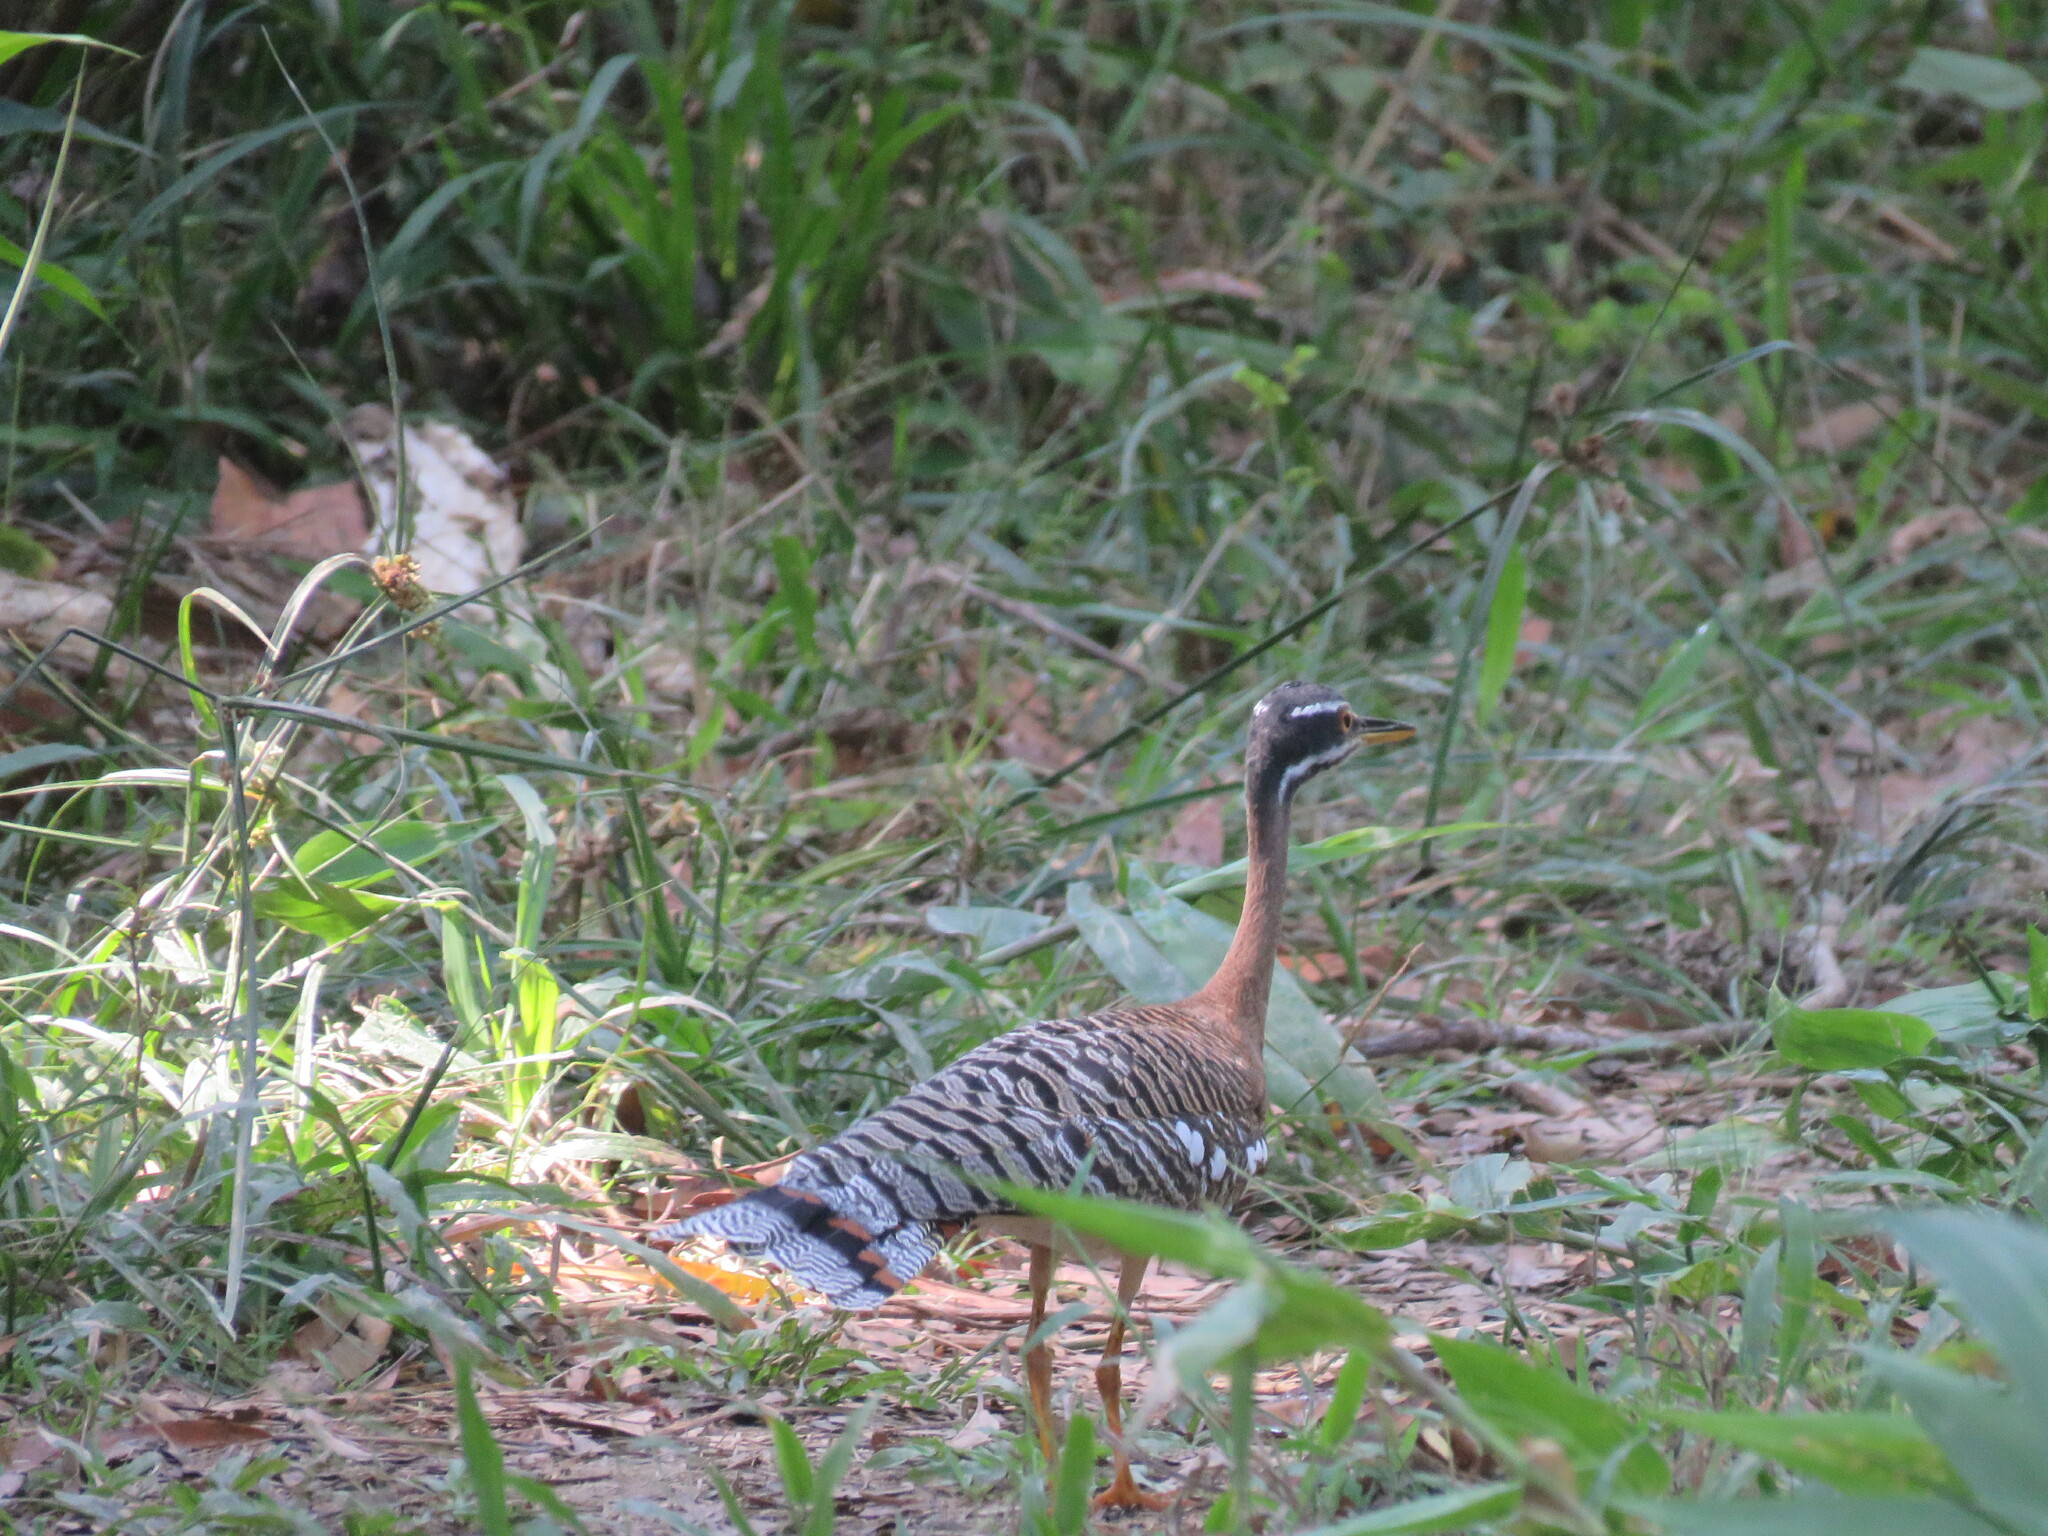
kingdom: Animalia
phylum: Chordata
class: Aves
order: Eurypygiformes
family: Eurypygidae
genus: Eurypyga
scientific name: Eurypyga helias
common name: Sunbittern
